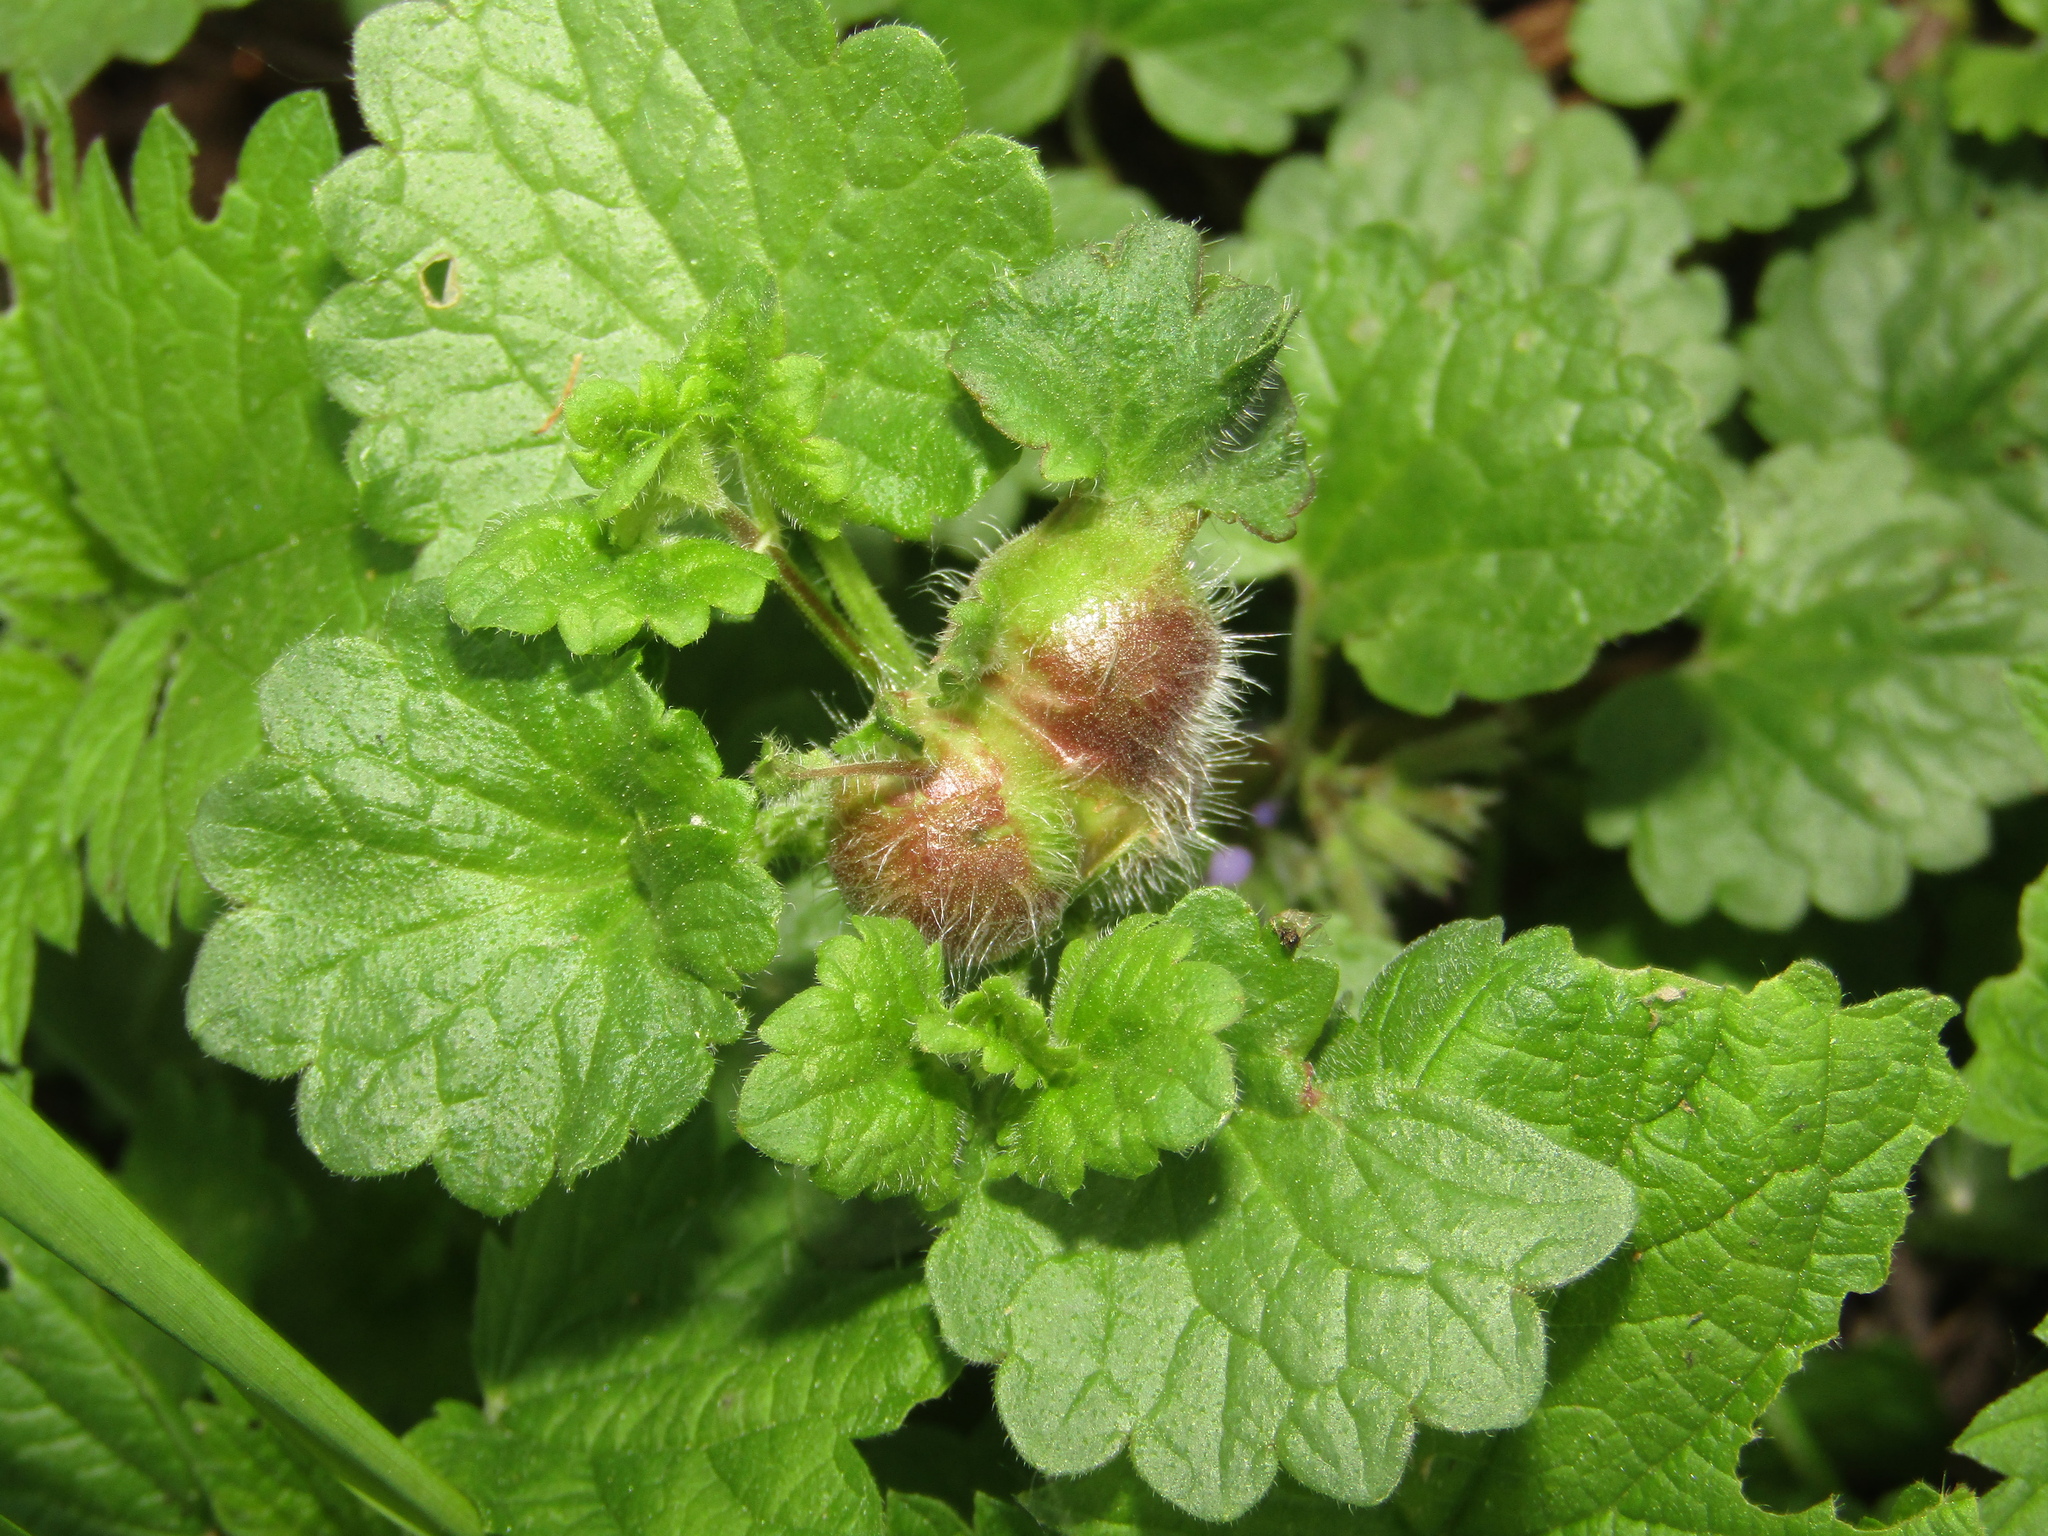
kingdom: Animalia
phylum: Arthropoda
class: Insecta
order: Hymenoptera
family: Cynipidae
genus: Liposthenes
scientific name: Liposthenes glechomae
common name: Gall wasp
